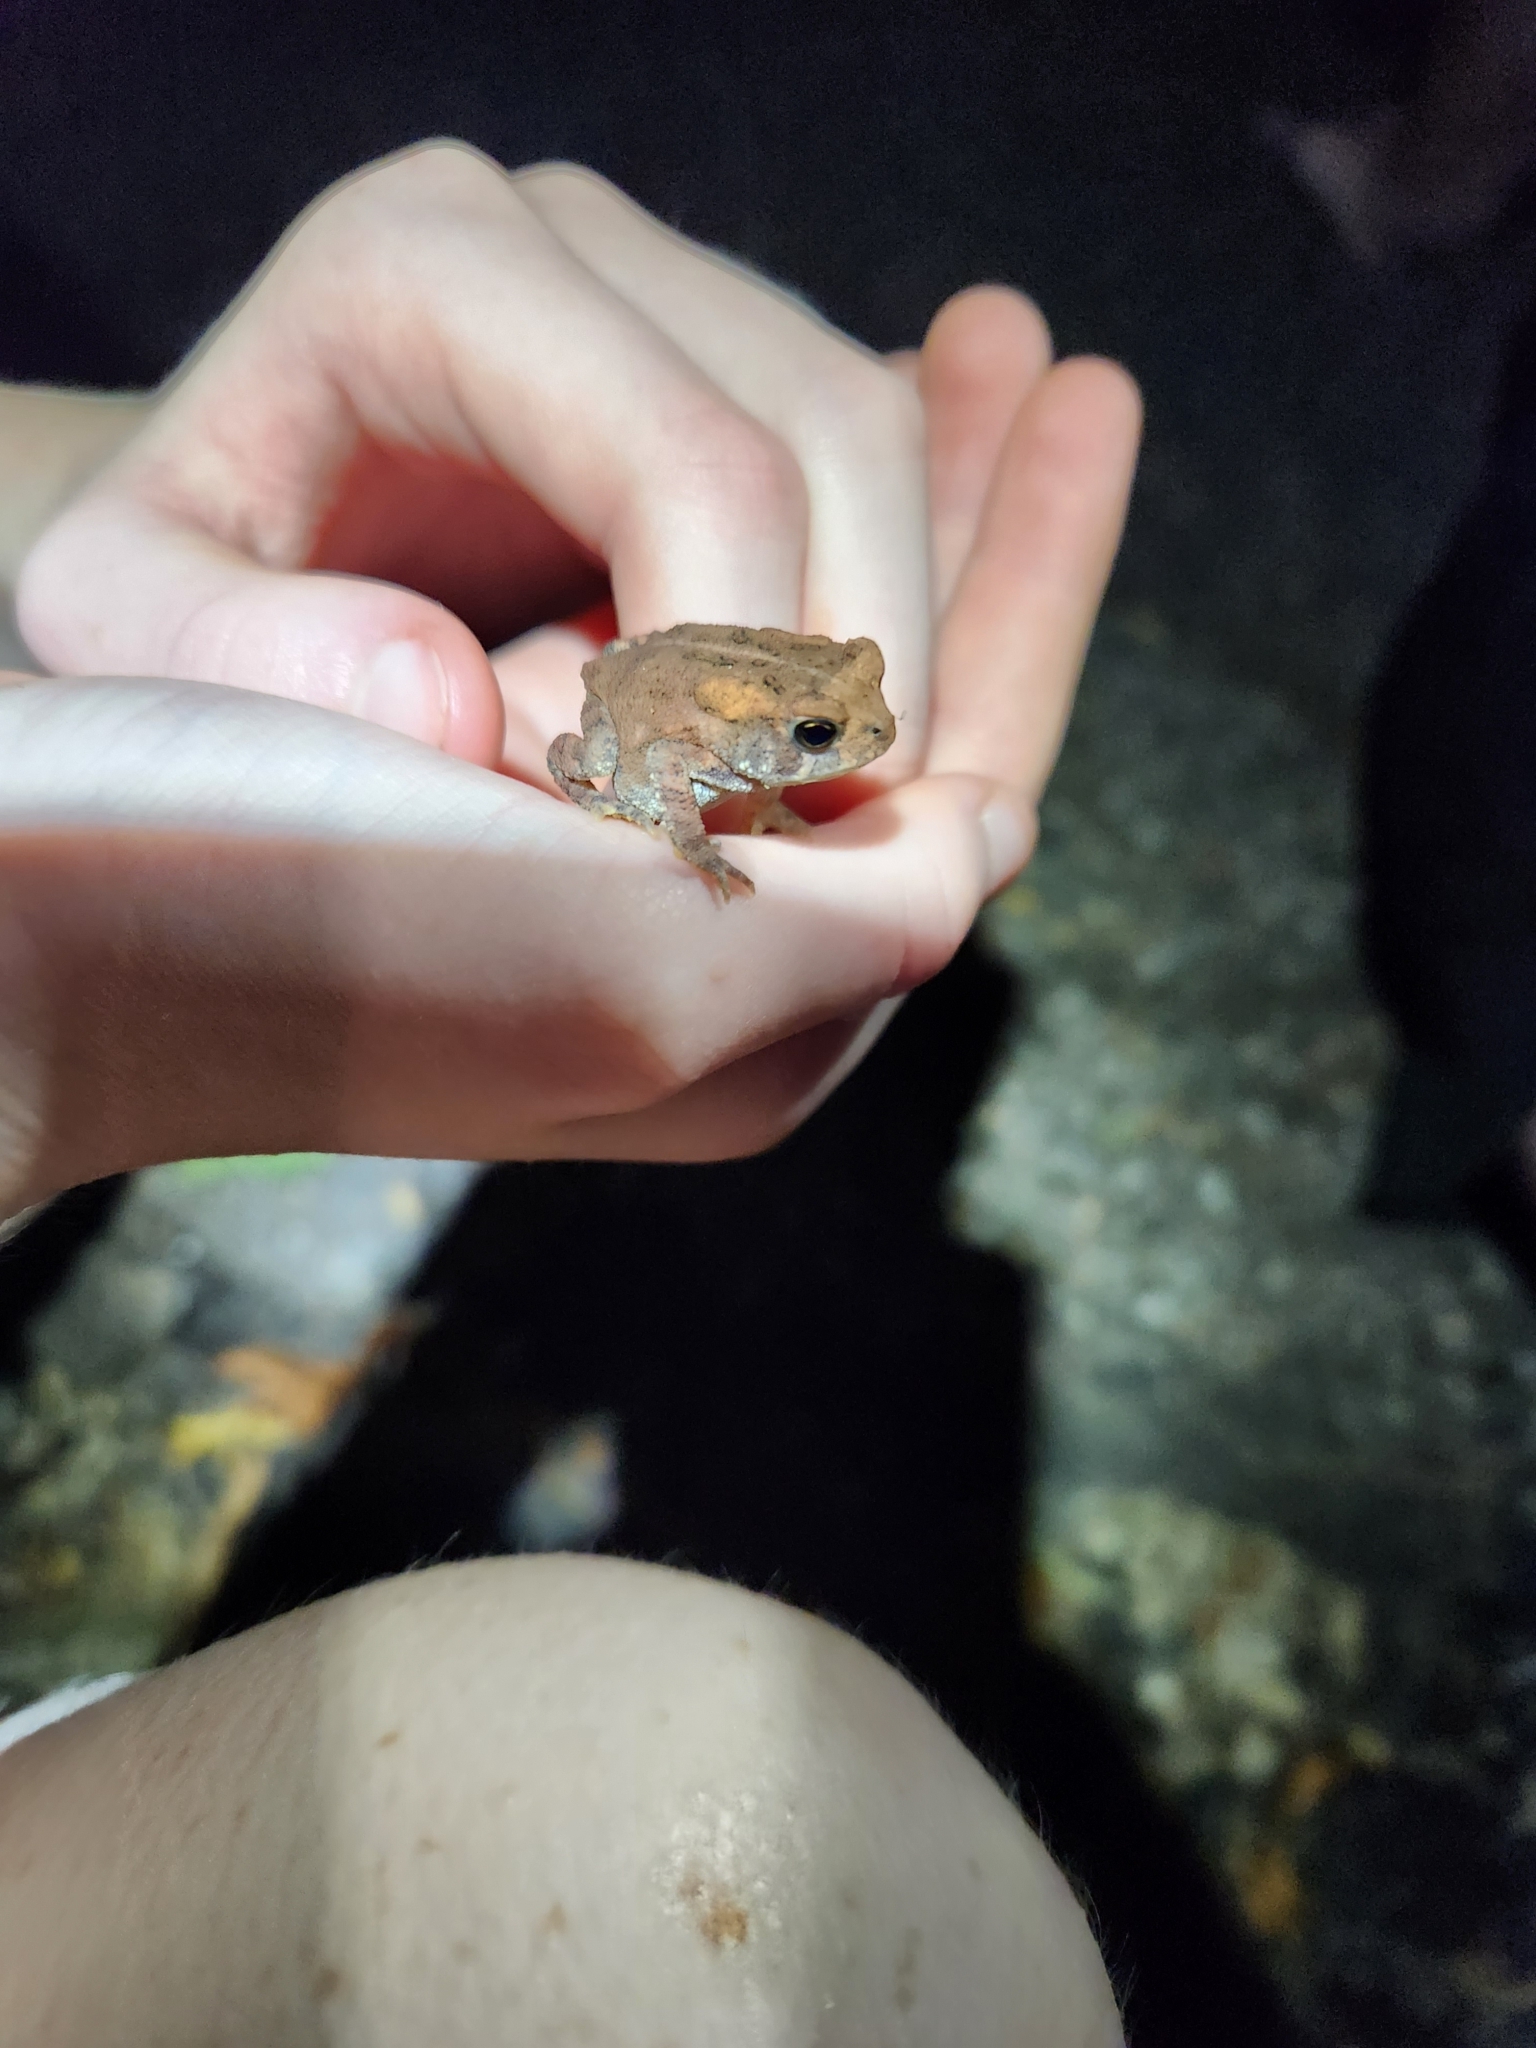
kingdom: Animalia
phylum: Chordata
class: Amphibia
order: Anura
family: Bufonidae
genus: Anaxyrus
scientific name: Anaxyrus americanus
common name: American toad
